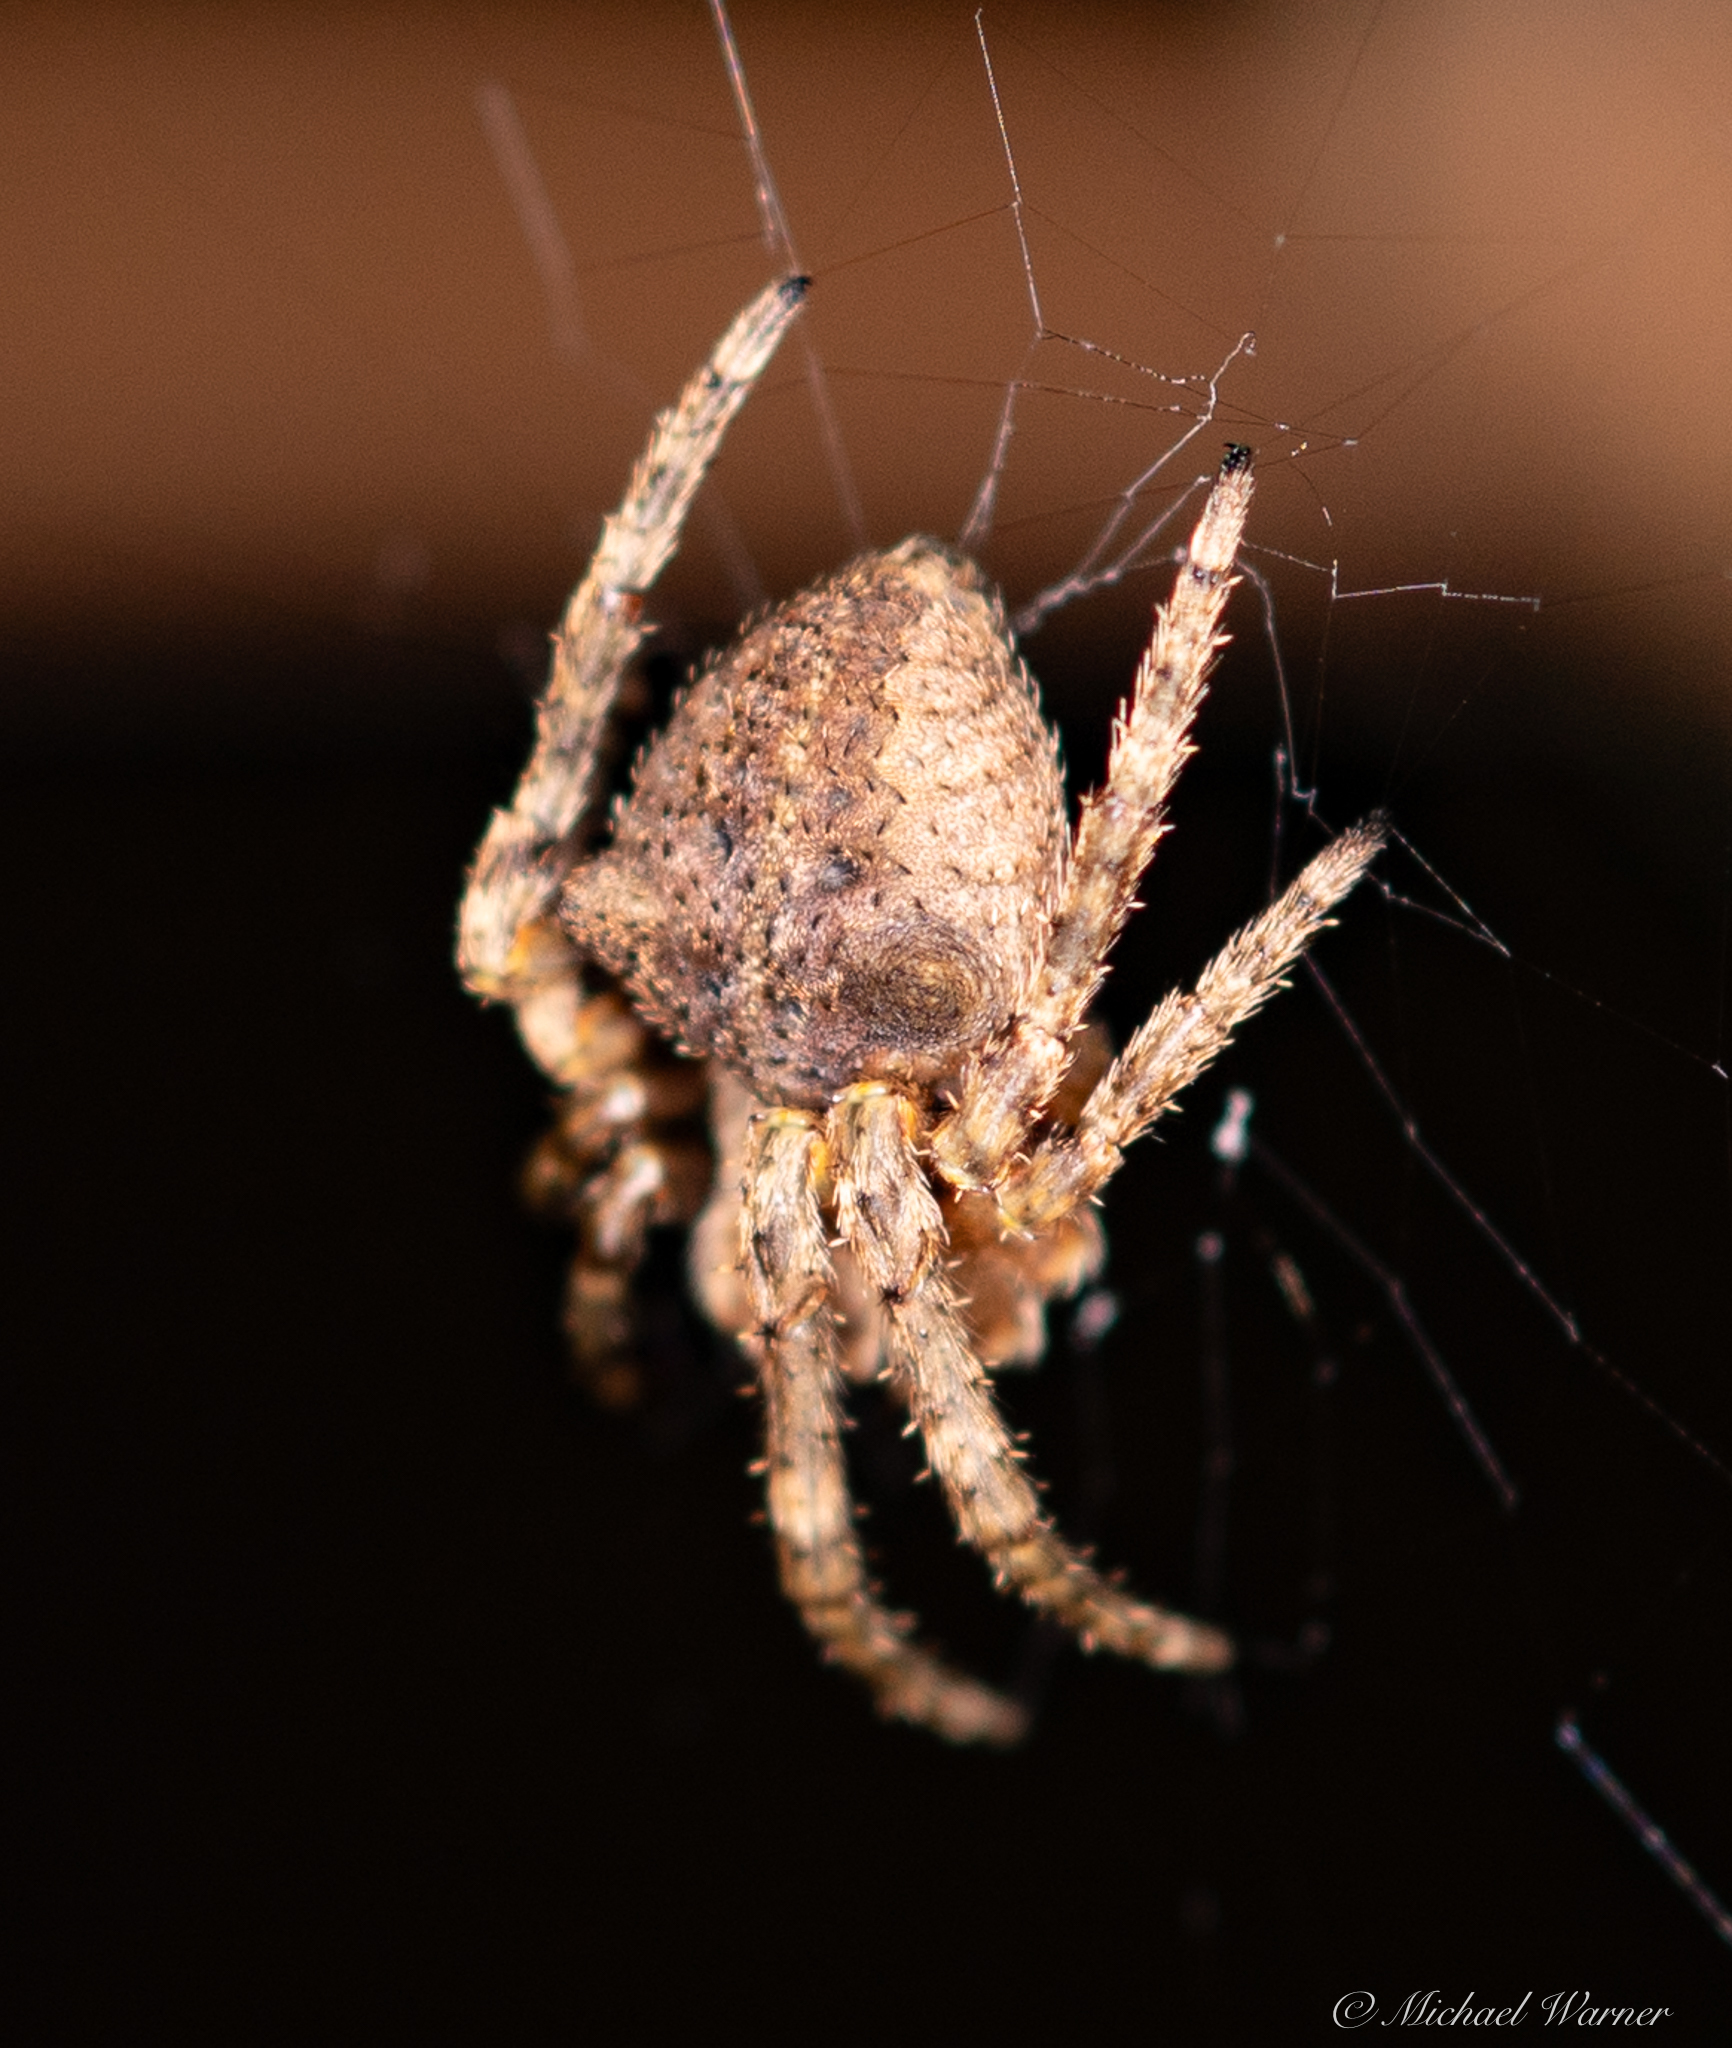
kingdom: Animalia
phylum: Arthropoda
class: Arachnida
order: Araneae
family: Araneidae
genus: Araneus
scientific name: Araneus andrewsi
